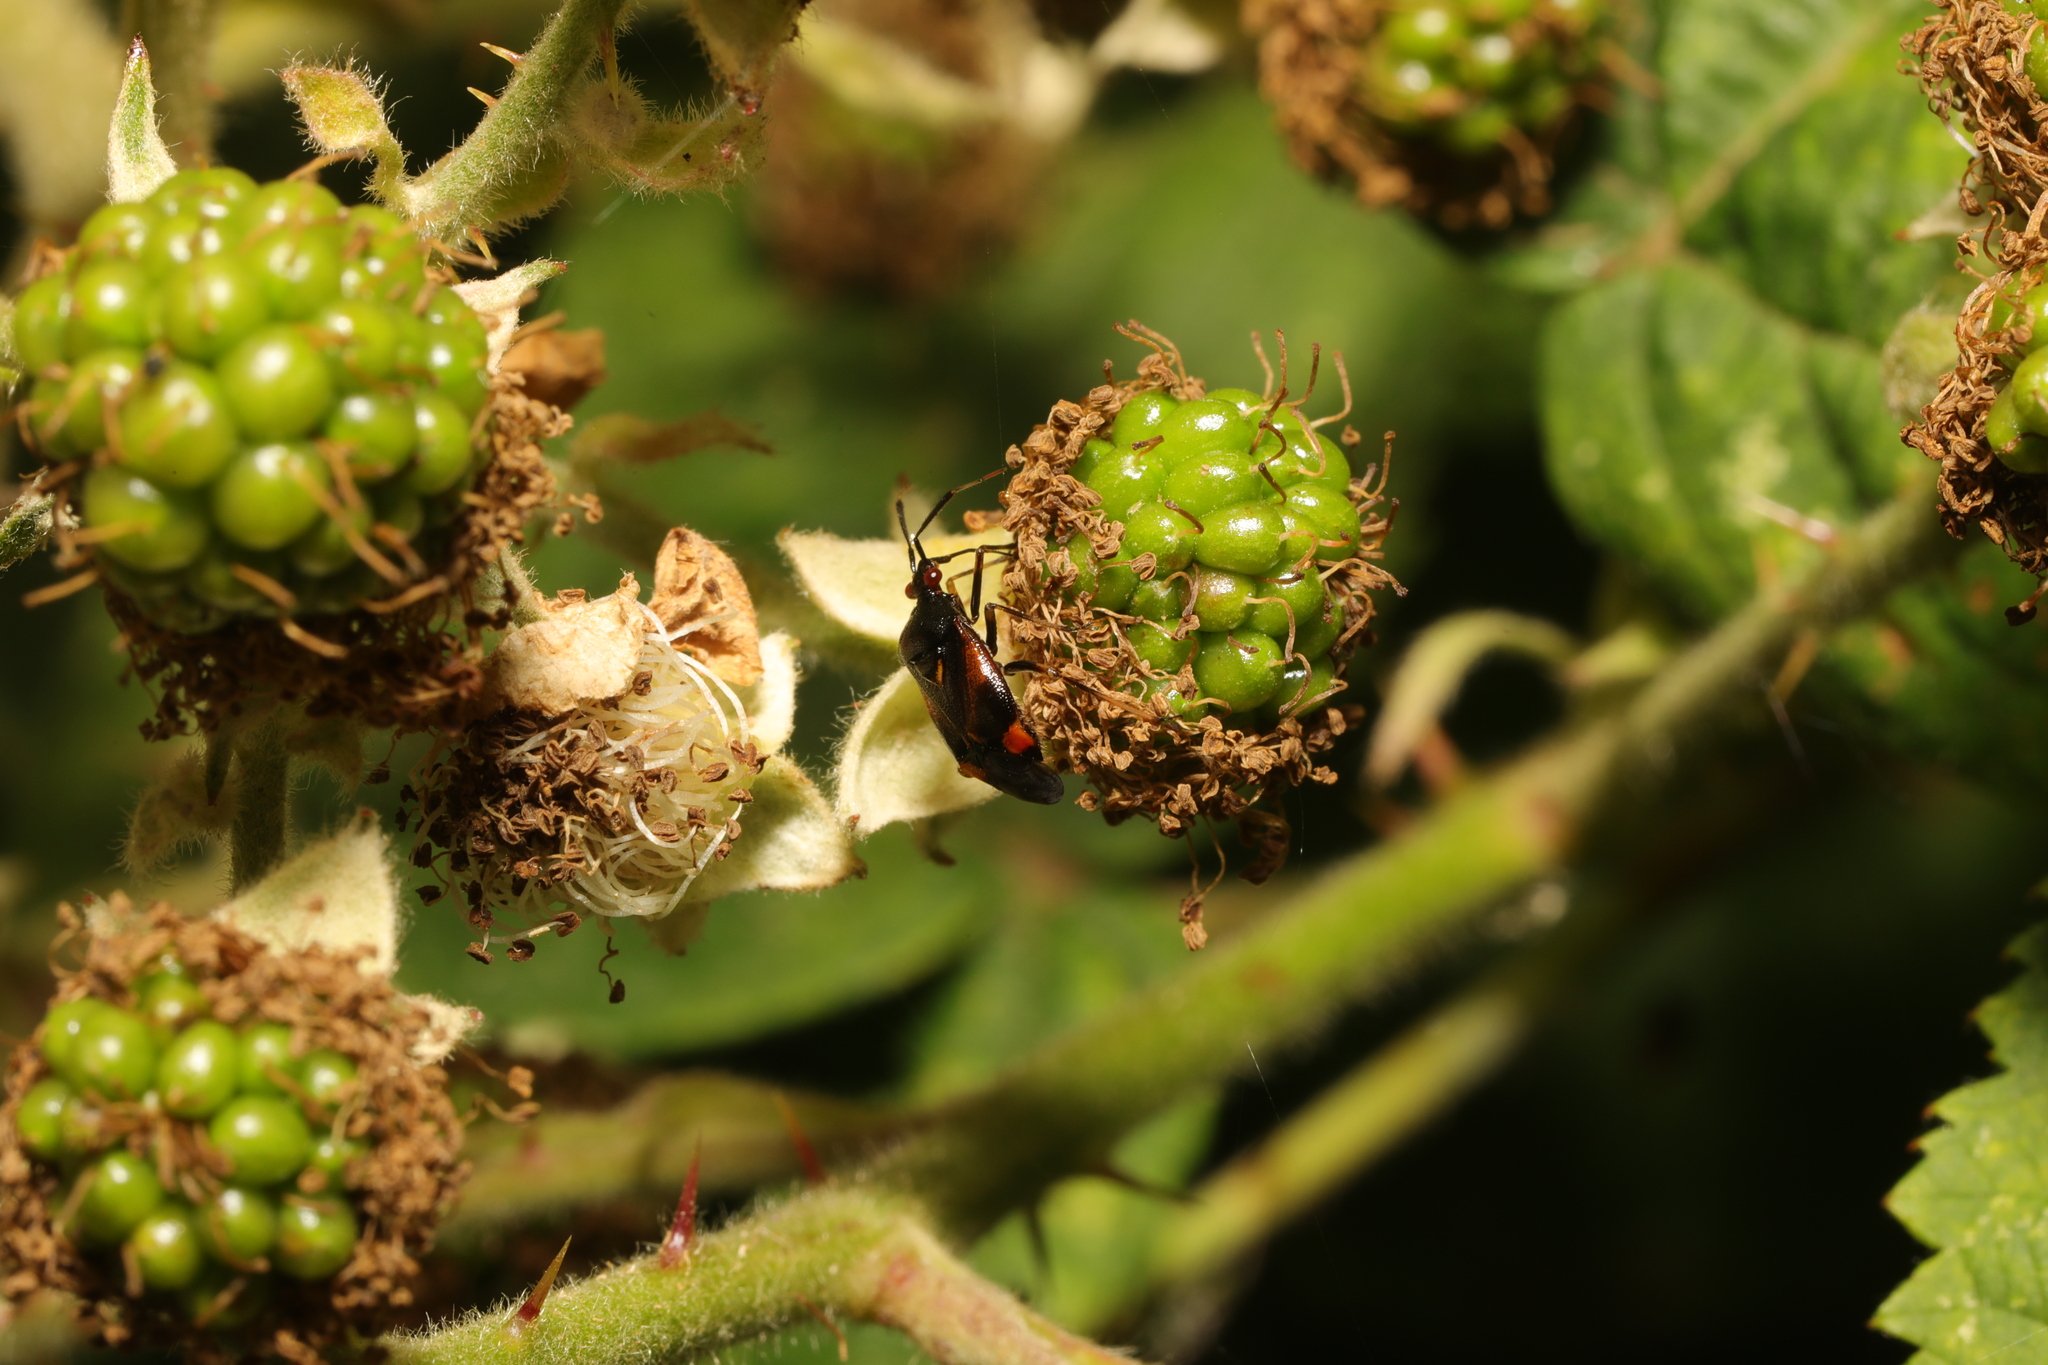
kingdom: Animalia
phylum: Arthropoda
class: Insecta
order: Hemiptera
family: Miridae
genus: Deraeocoris
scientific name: Deraeocoris ruber
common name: Plant bug
